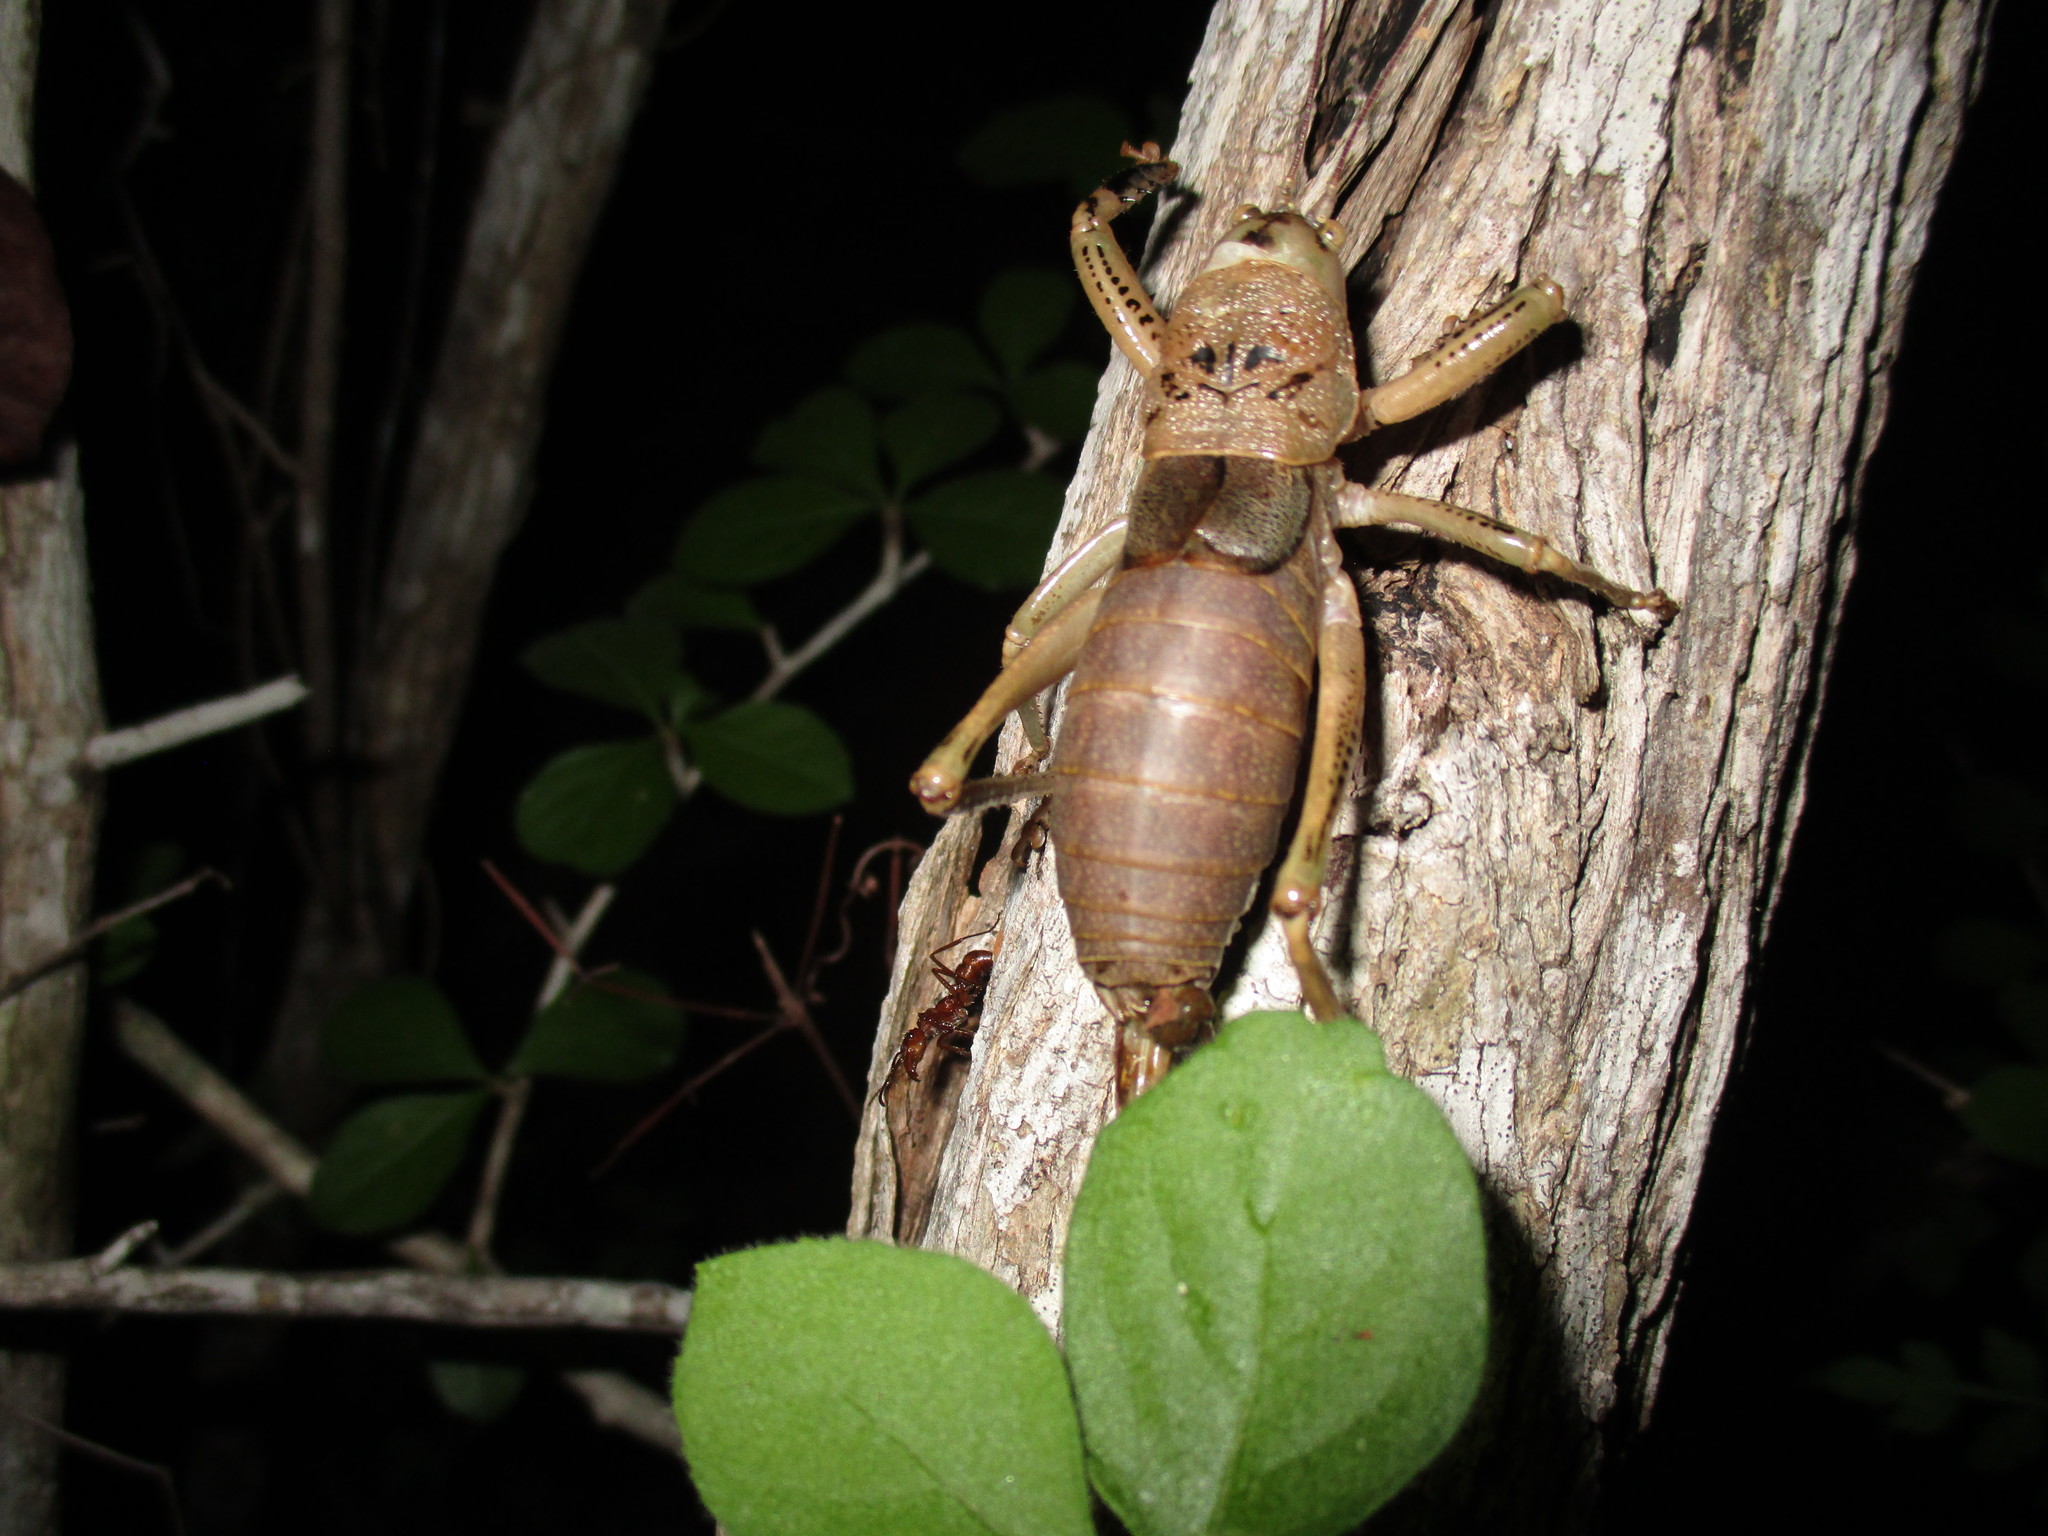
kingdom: Animalia
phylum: Arthropoda
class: Insecta
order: Orthoptera
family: Tettigoniidae
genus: Nesoecia
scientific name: Nesoecia nigrispina
